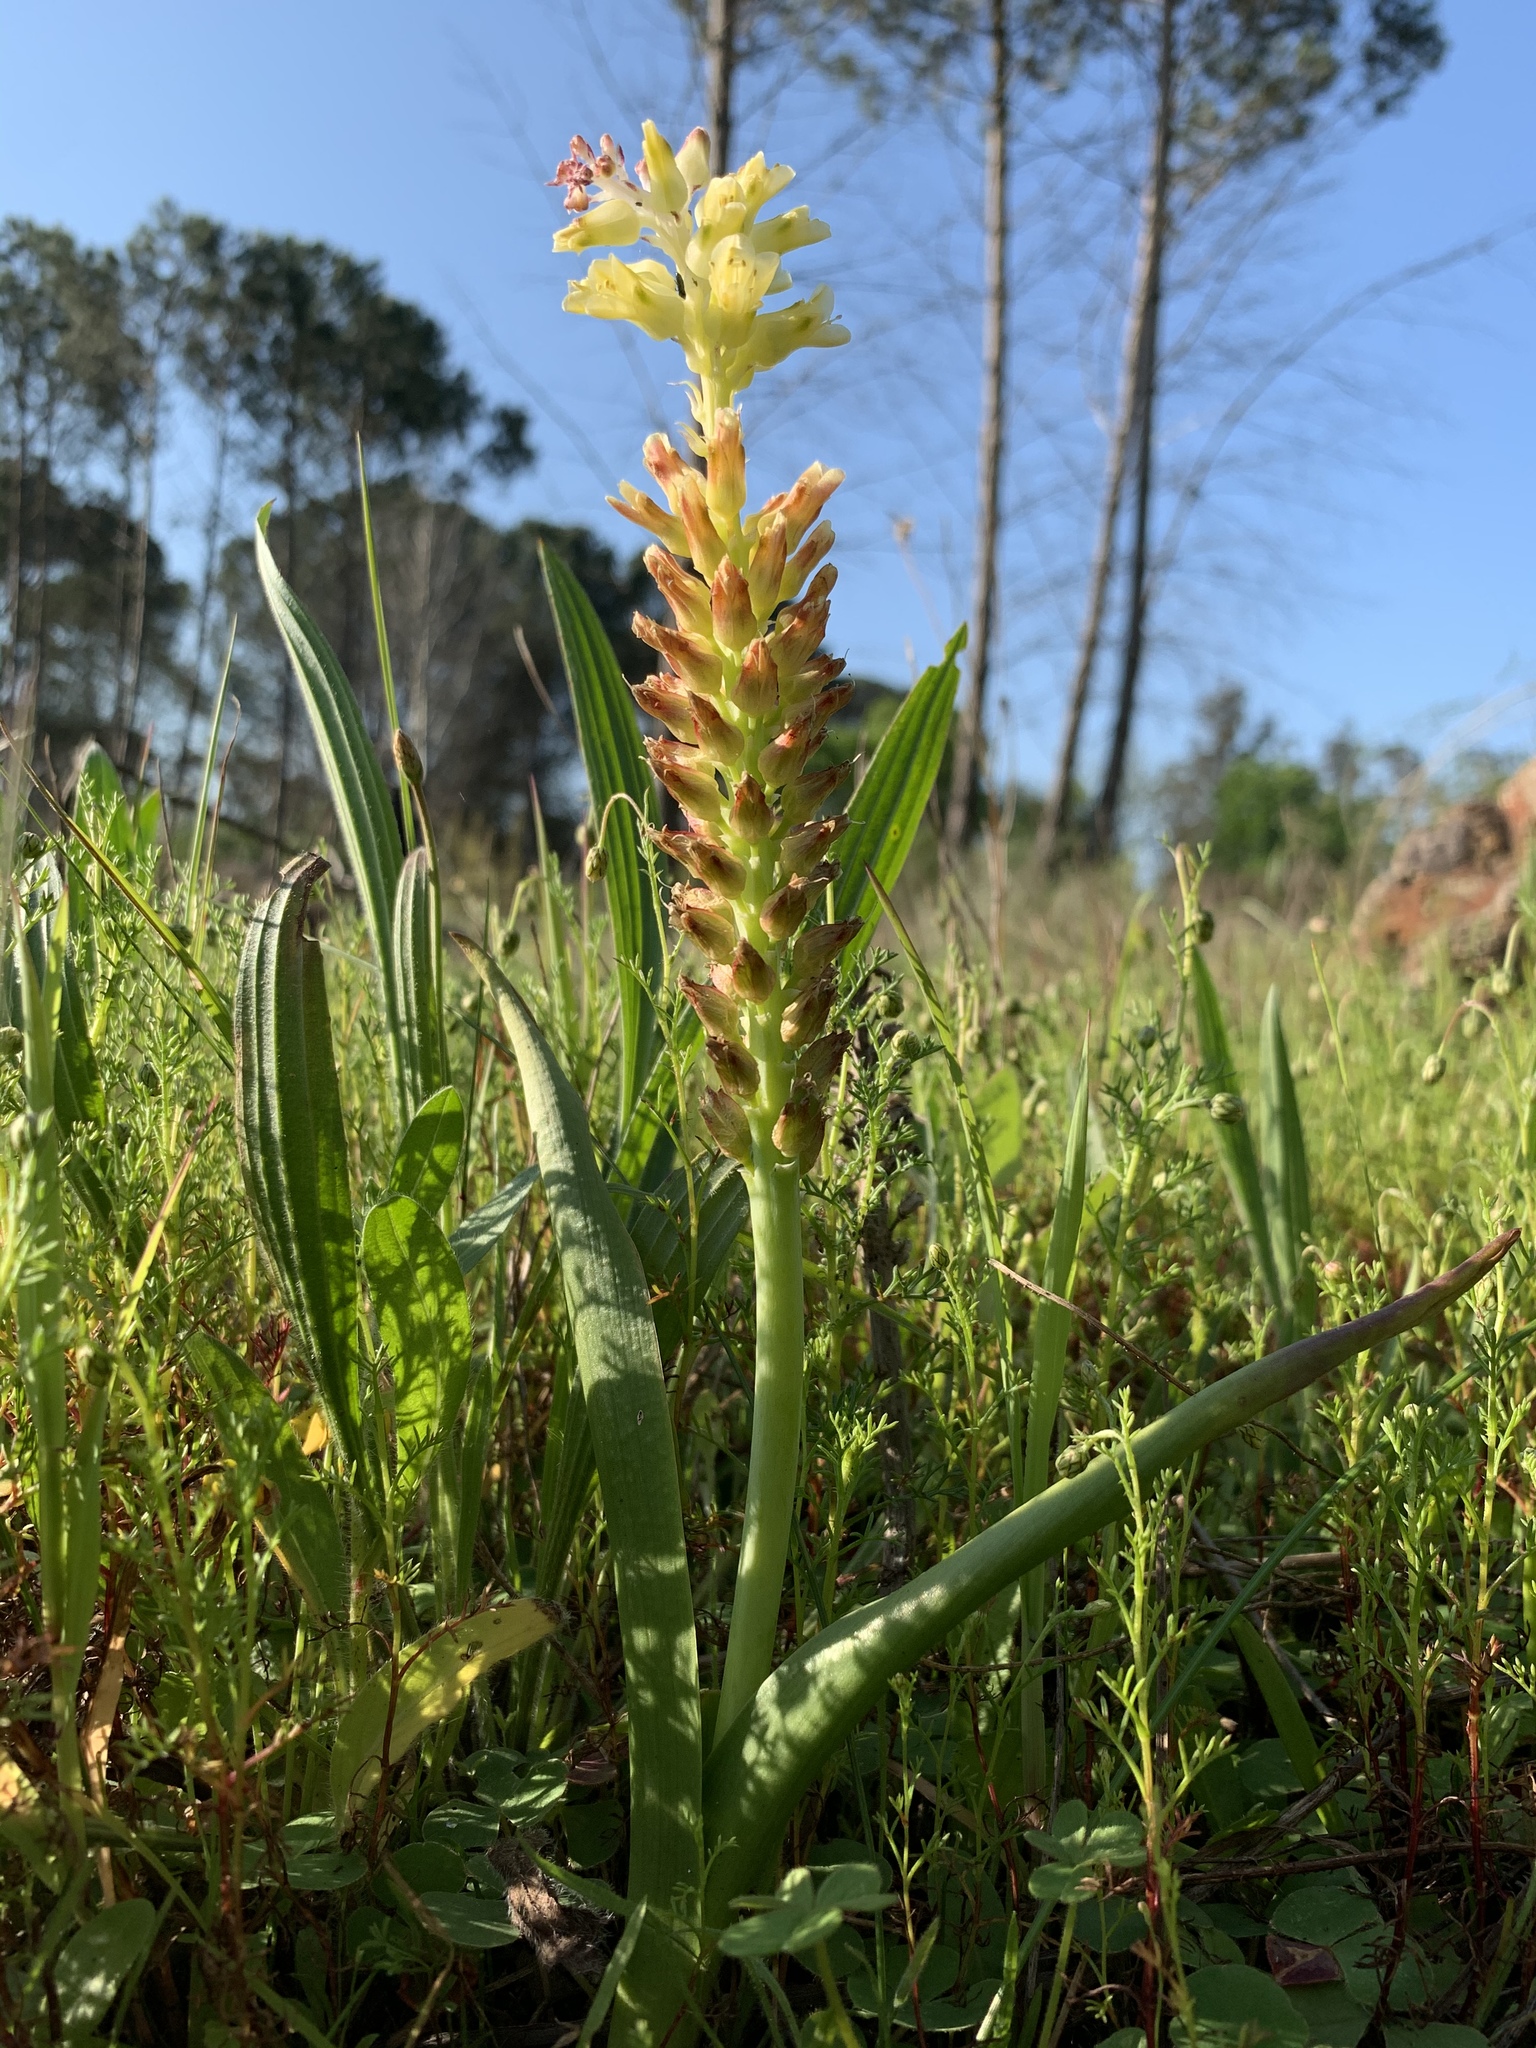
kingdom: Plantae
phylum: Tracheophyta
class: Liliopsida
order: Asparagales
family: Asparagaceae
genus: Lachenalia
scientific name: Lachenalia pallida
